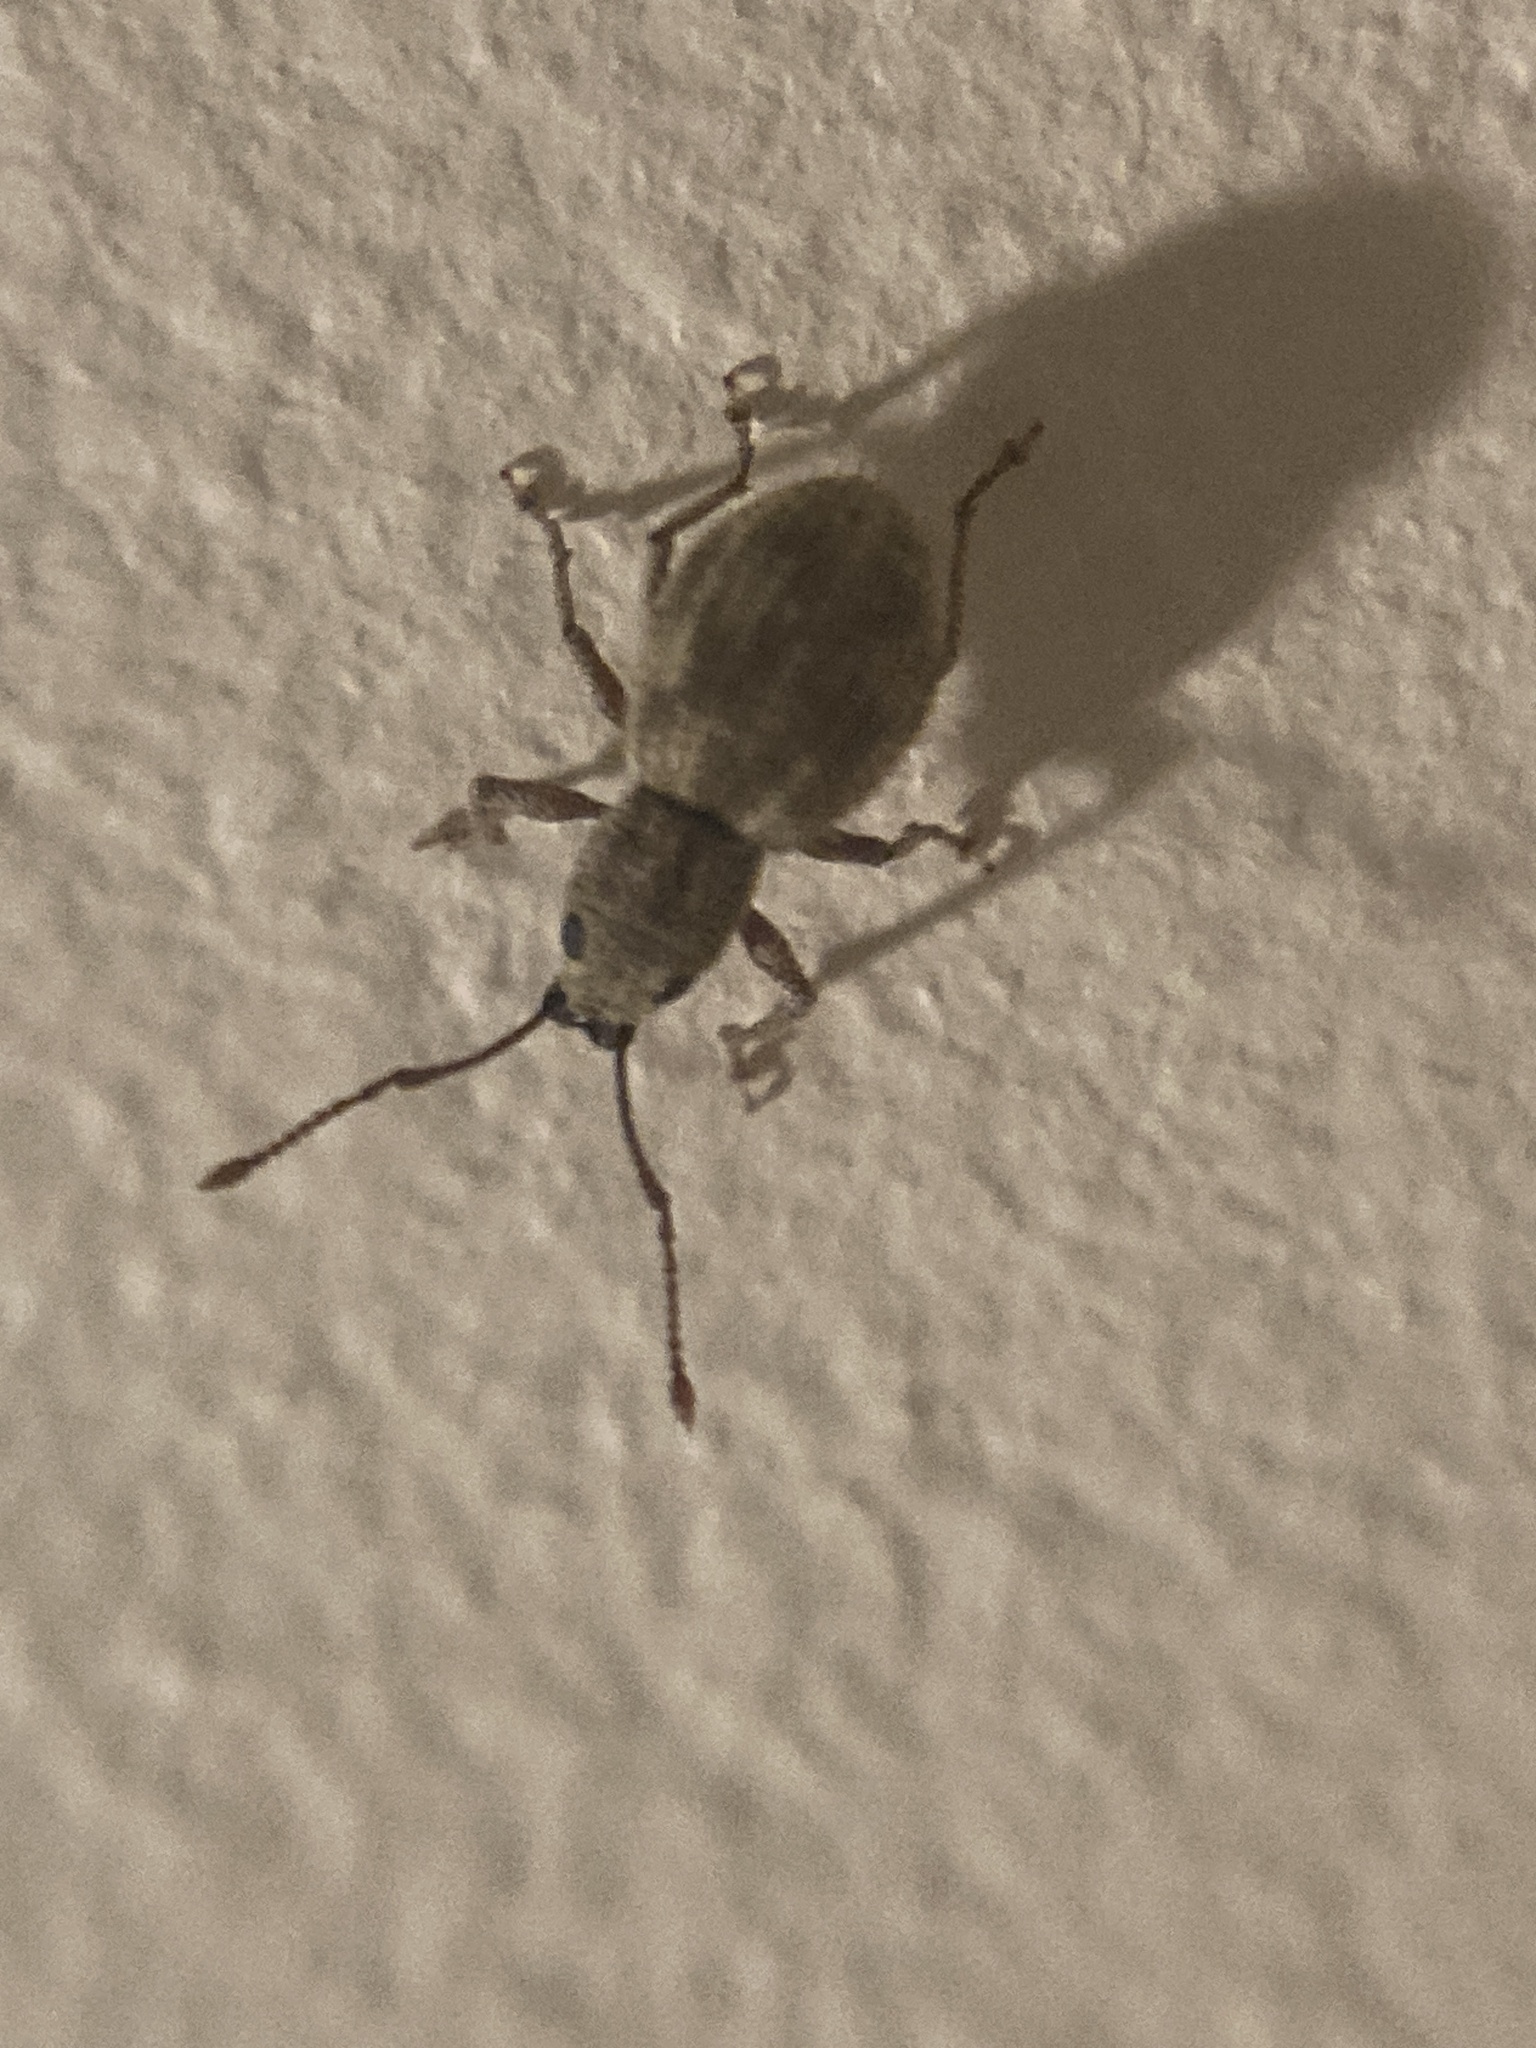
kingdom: Animalia
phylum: Arthropoda
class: Insecta
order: Coleoptera
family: Curculionidae
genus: Calomycterus
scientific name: Calomycterus setarius
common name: Weevil
